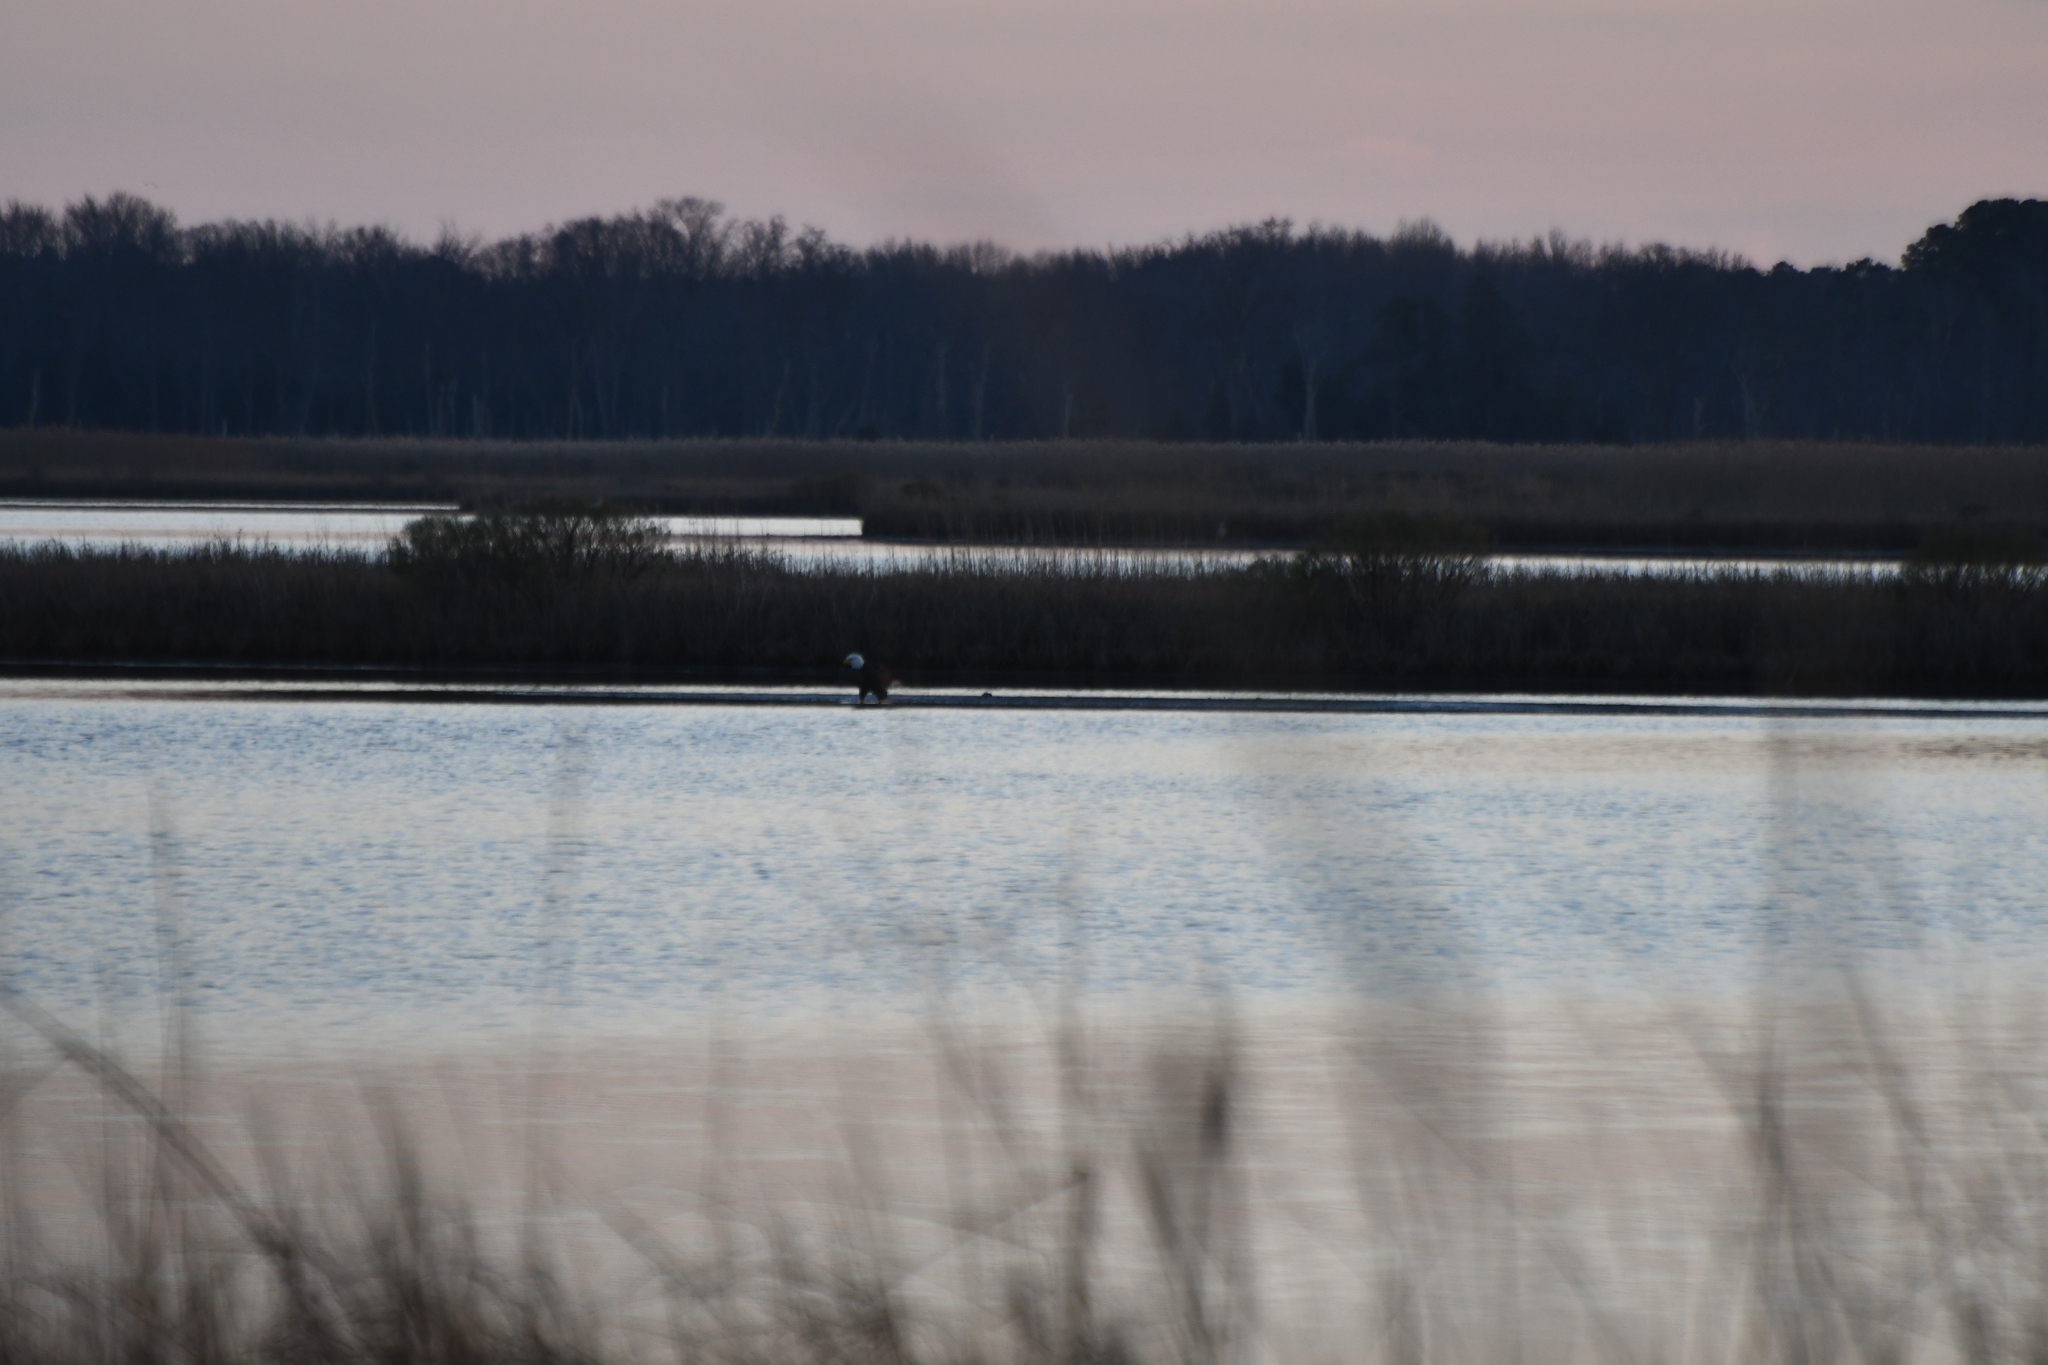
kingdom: Animalia
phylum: Chordata
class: Aves
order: Accipitriformes
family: Accipitridae
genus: Haliaeetus
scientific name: Haliaeetus leucocephalus
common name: Bald eagle
